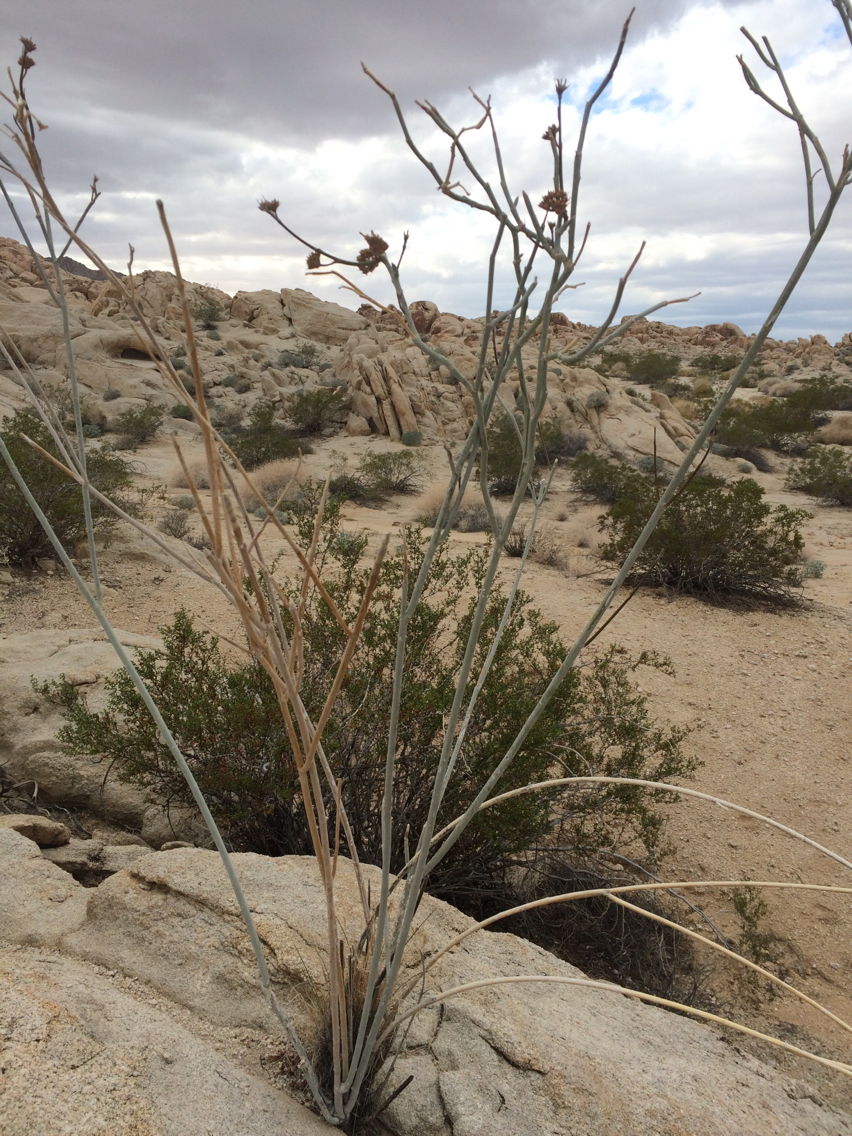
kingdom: Plantae
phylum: Tracheophyta
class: Magnoliopsida
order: Gentianales
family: Apocynaceae
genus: Asclepias
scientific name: Asclepias albicans
